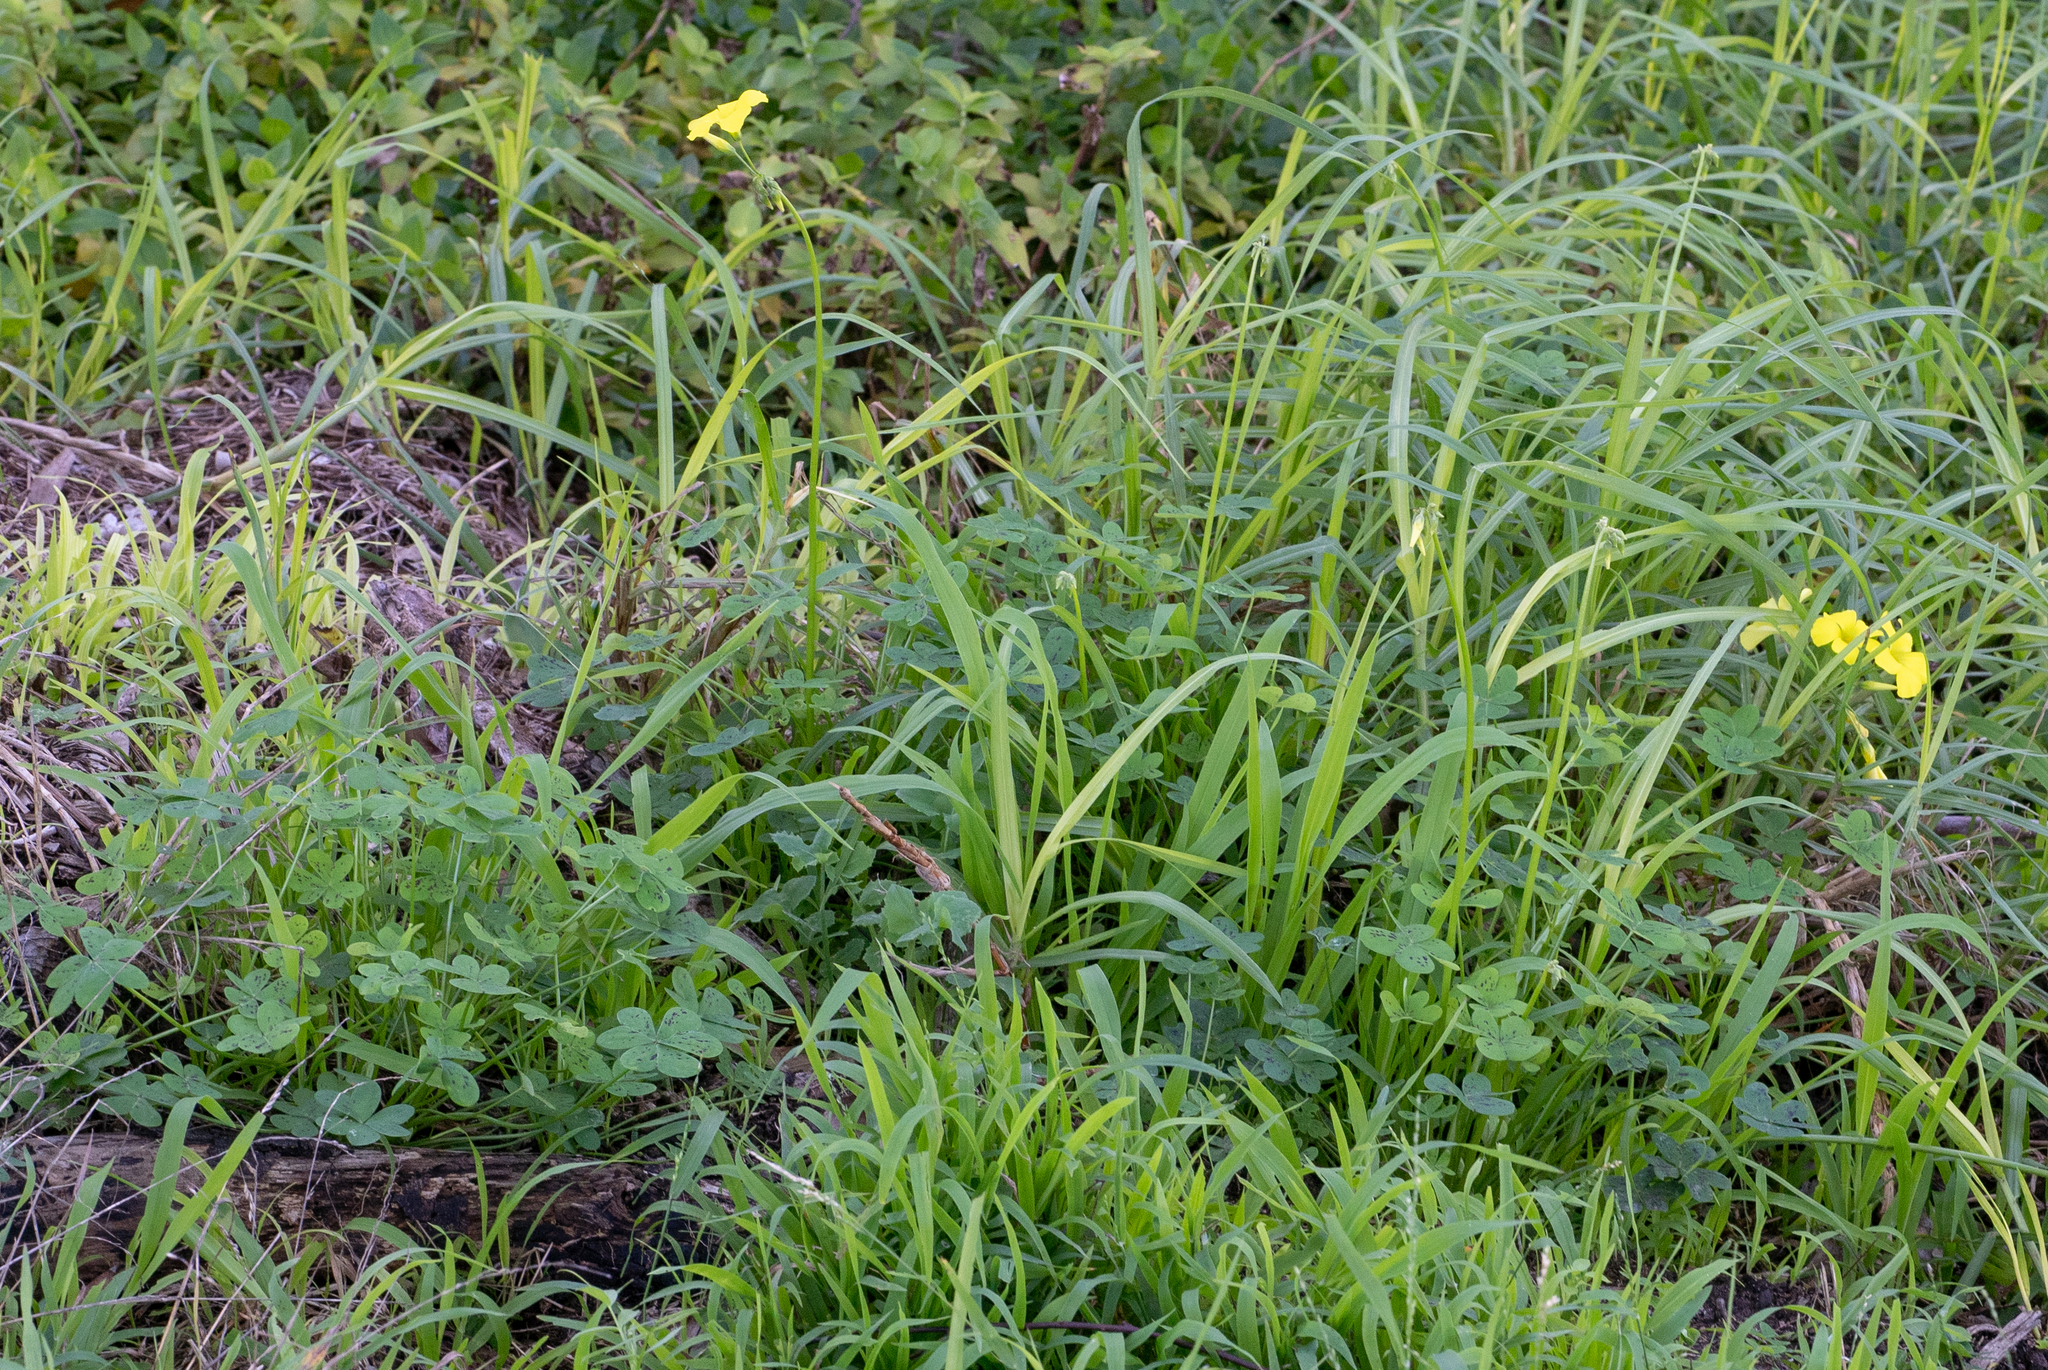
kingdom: Plantae
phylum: Tracheophyta
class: Magnoliopsida
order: Oxalidales
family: Oxalidaceae
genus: Oxalis
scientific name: Oxalis pes-caprae
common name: Bermuda-buttercup
